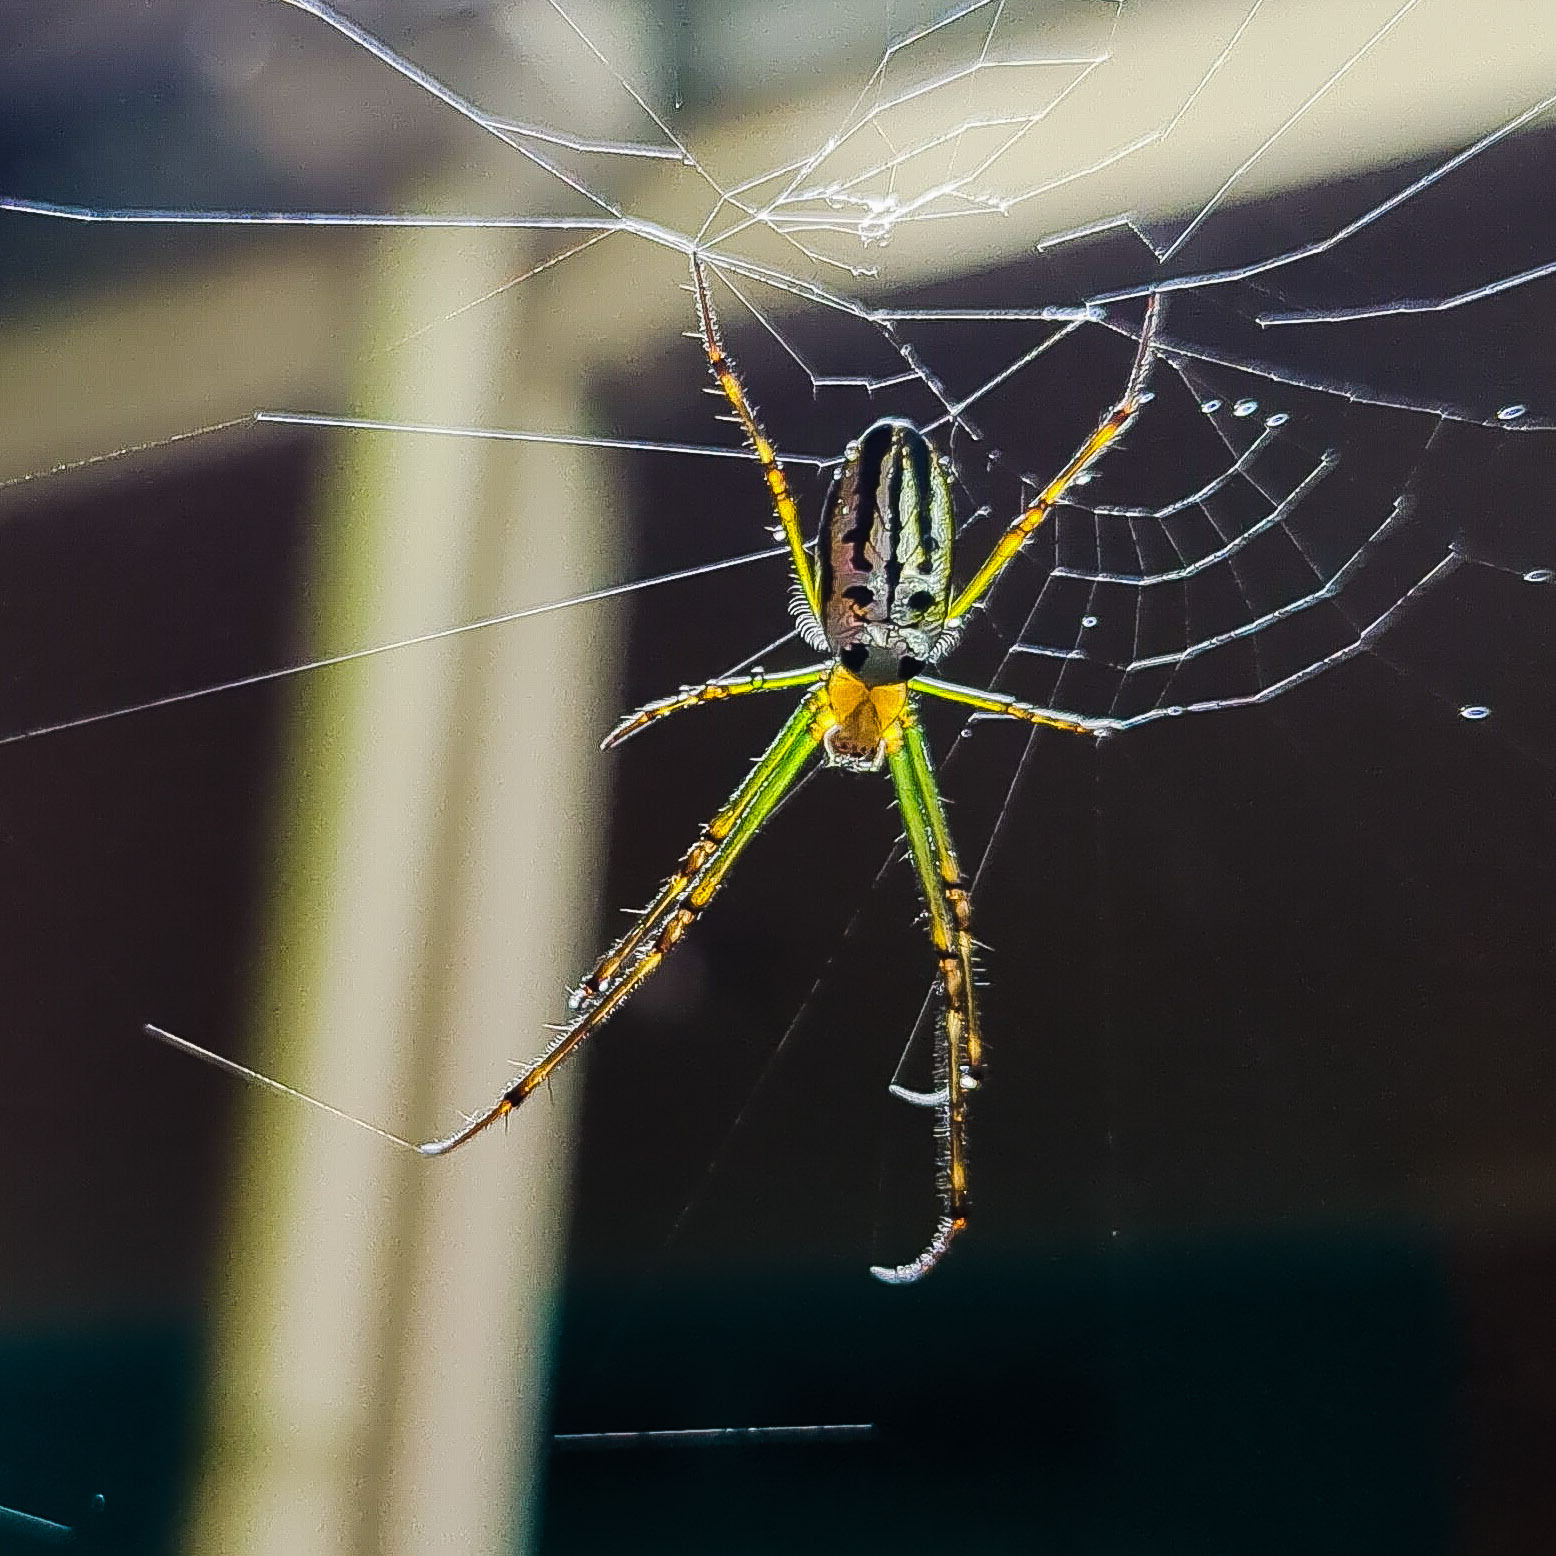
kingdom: Animalia
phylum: Arthropoda
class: Arachnida
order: Araneae
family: Tetragnathidae
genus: Leucauge
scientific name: Leucauge dromedaria
